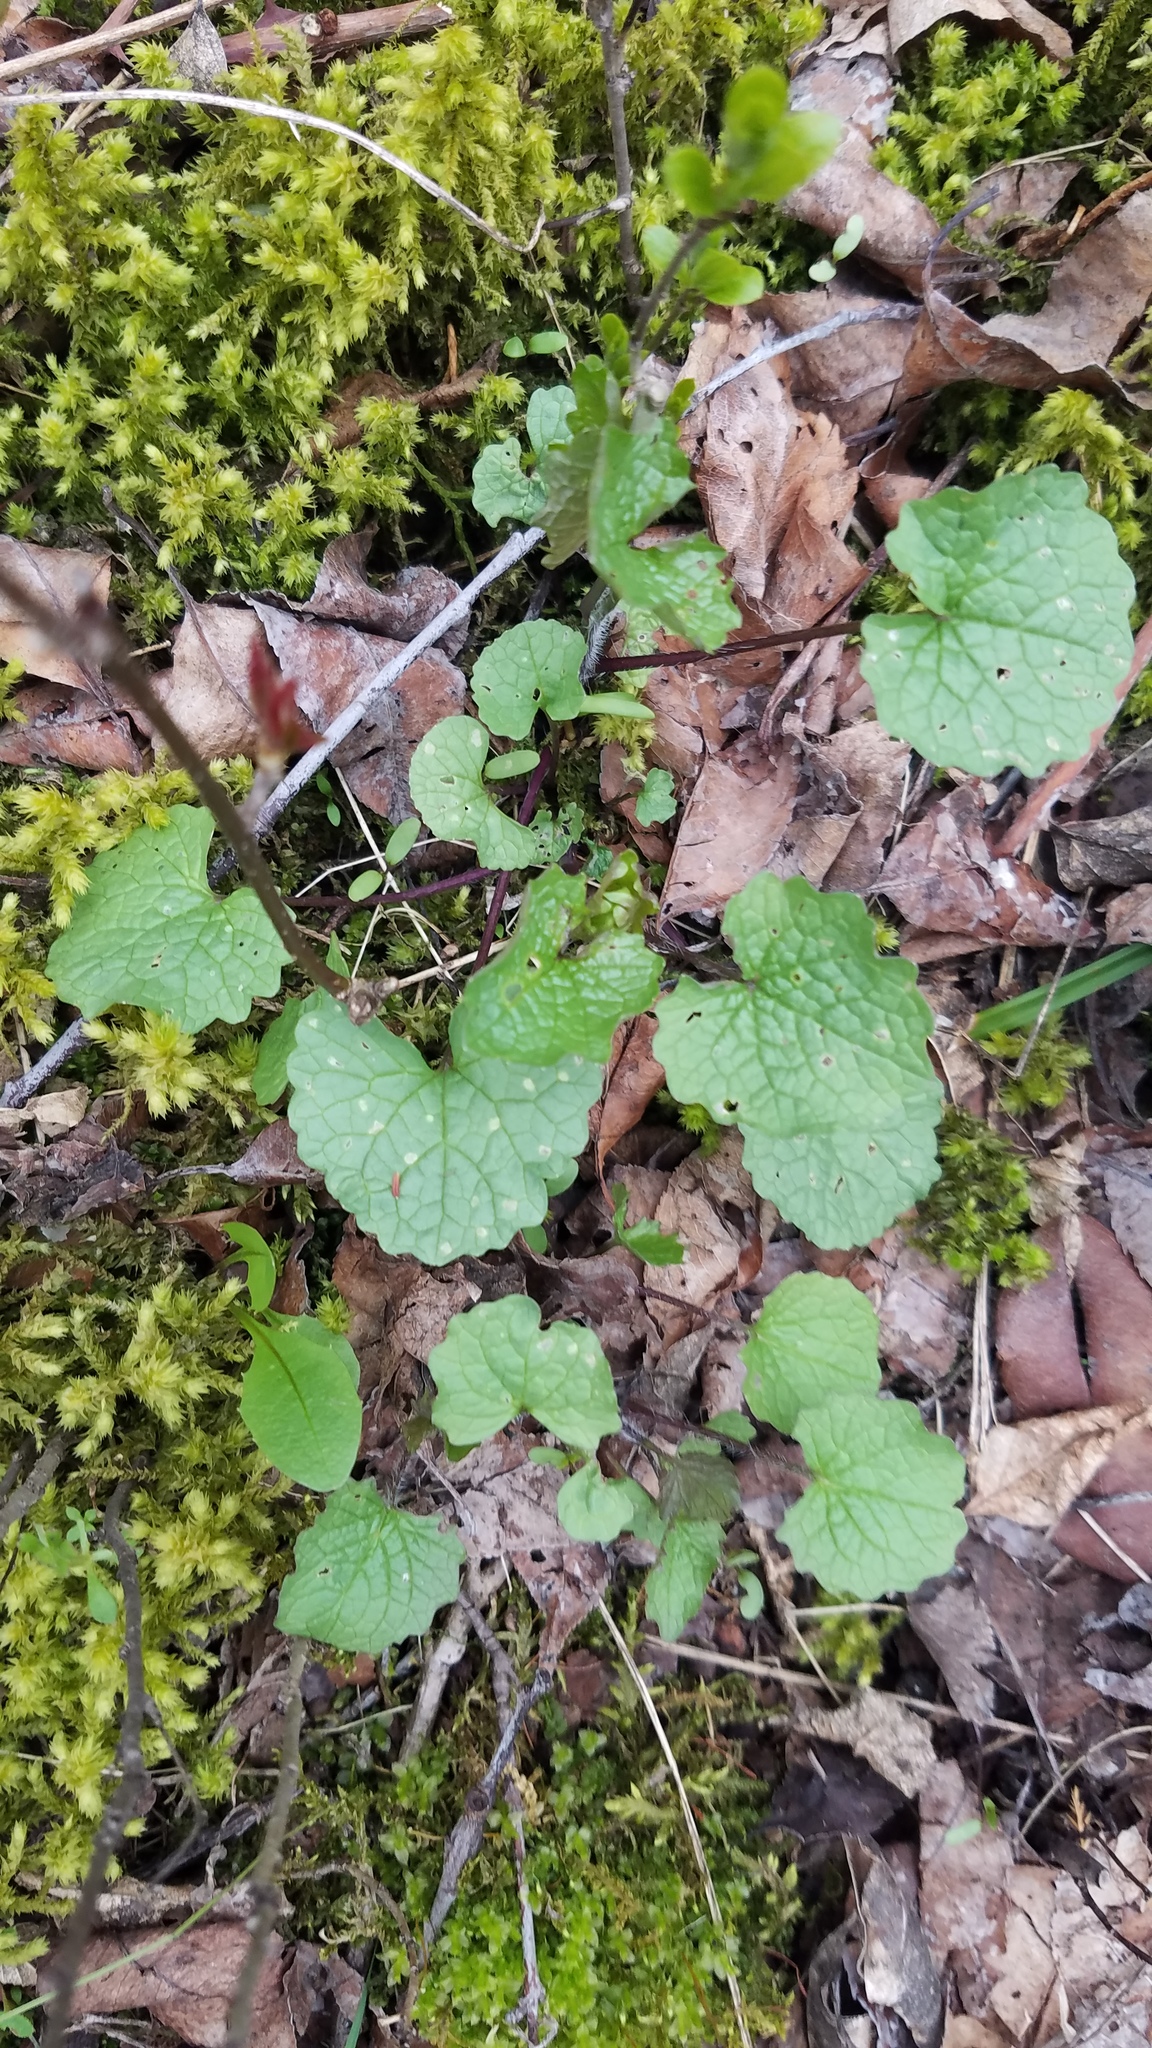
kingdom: Plantae
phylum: Tracheophyta
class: Magnoliopsida
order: Brassicales
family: Brassicaceae
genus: Alliaria
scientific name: Alliaria petiolata
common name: Garlic mustard
